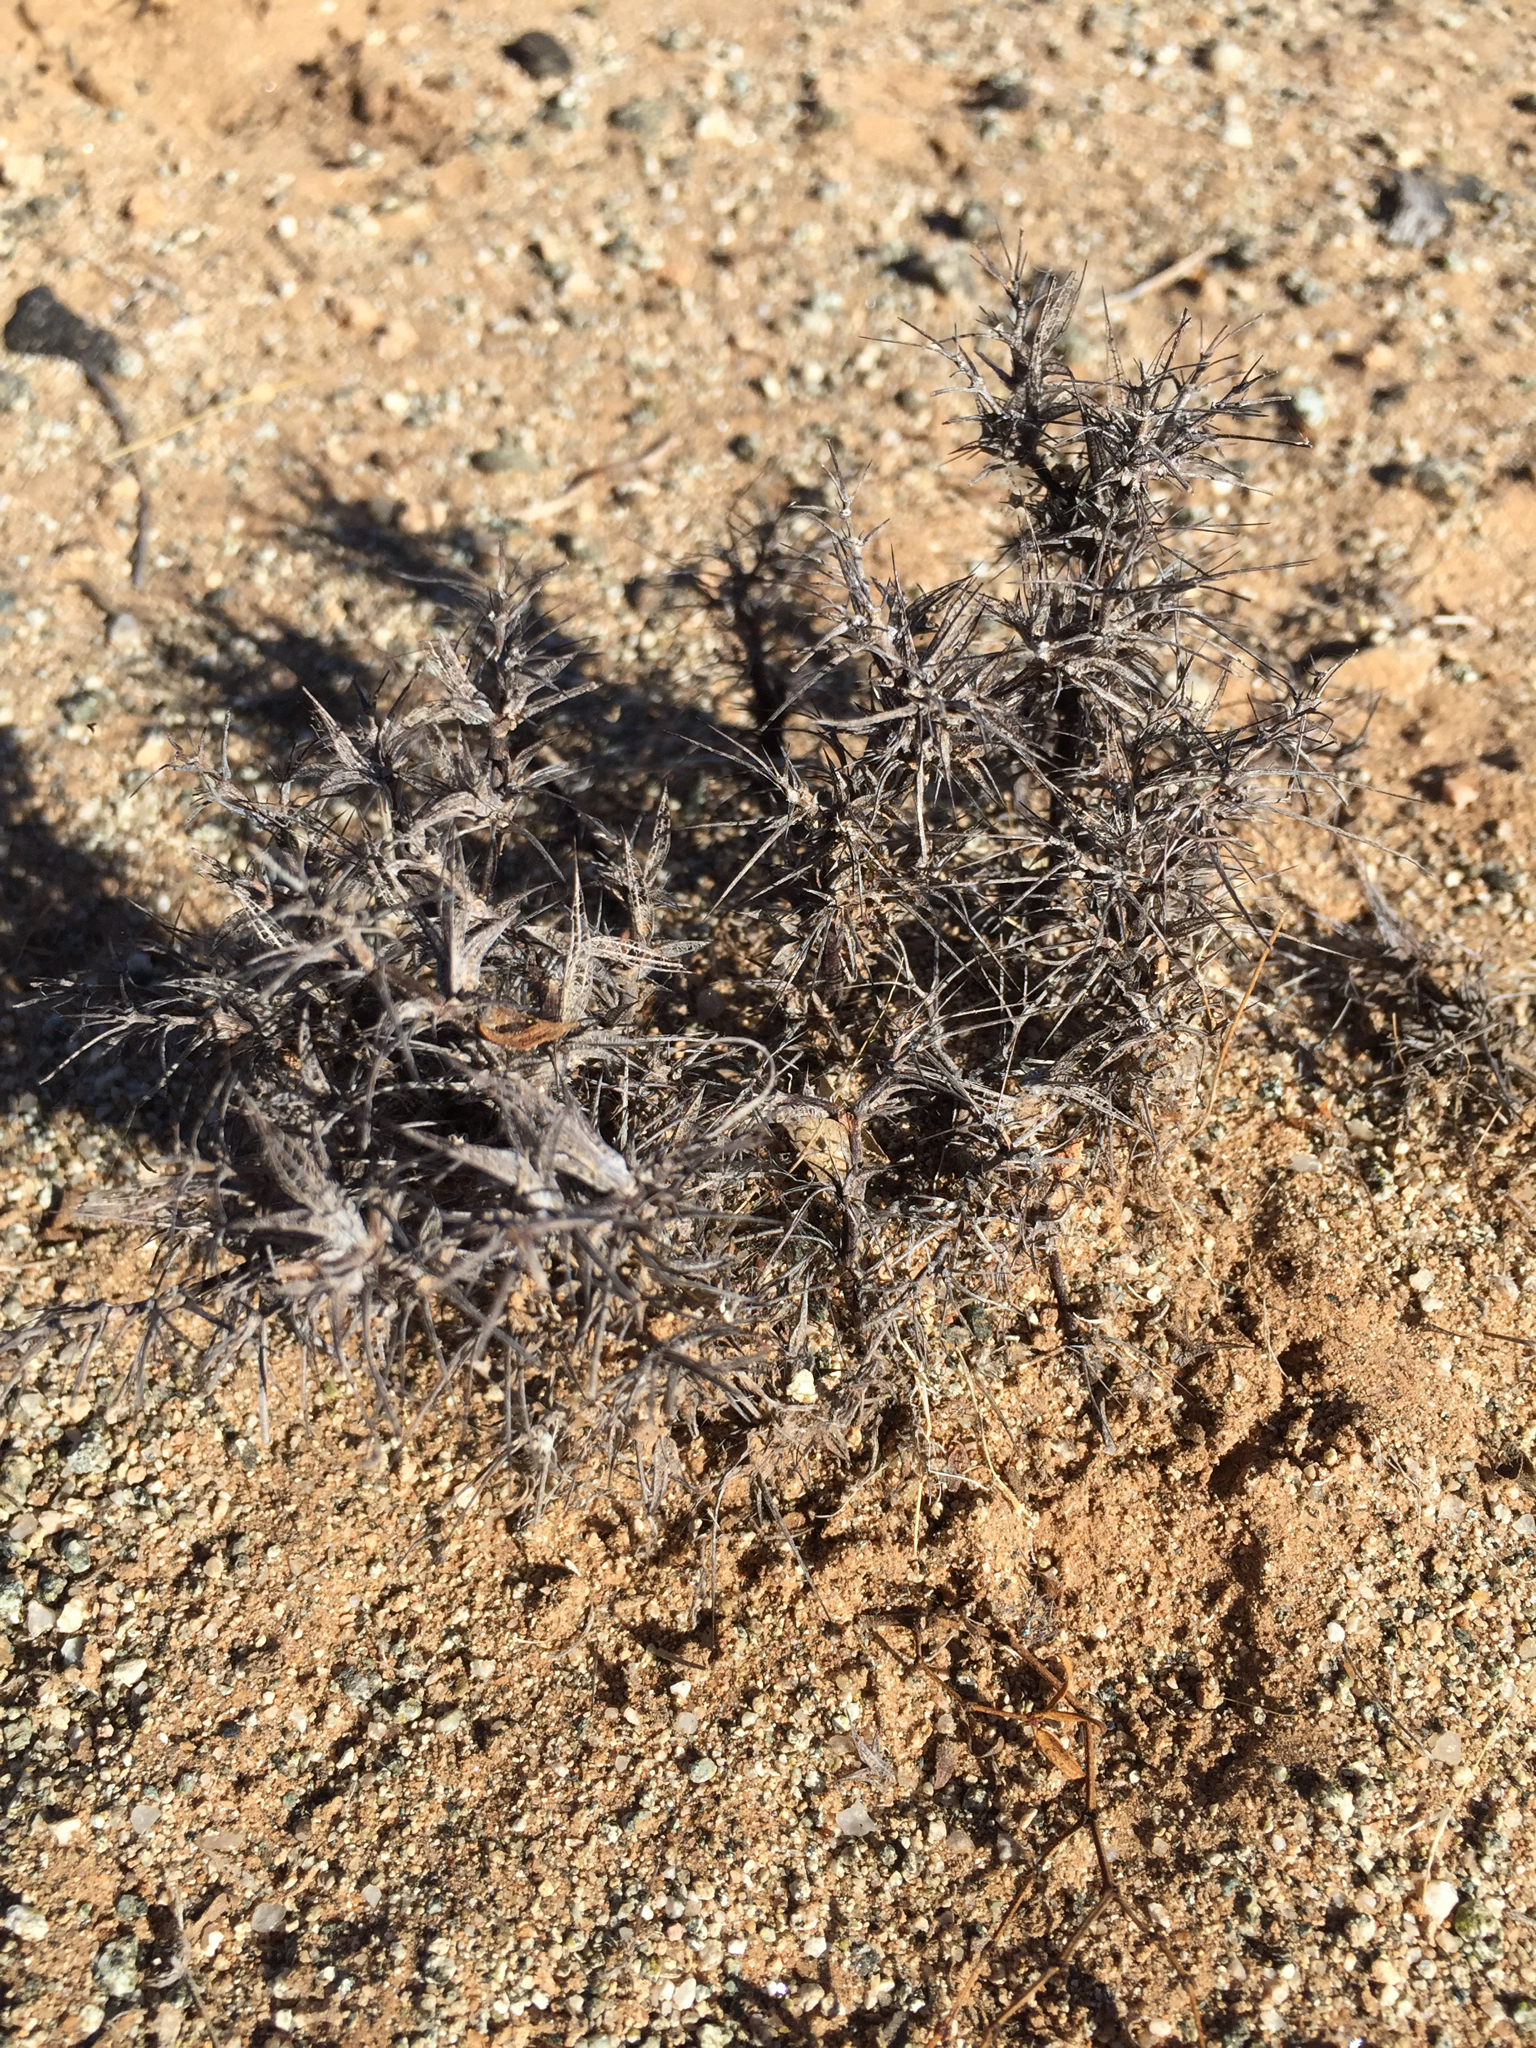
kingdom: Plantae
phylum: Tracheophyta
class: Magnoliopsida
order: Caryophyllales
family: Polygonaceae
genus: Chorizanthe
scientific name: Chorizanthe rigida
